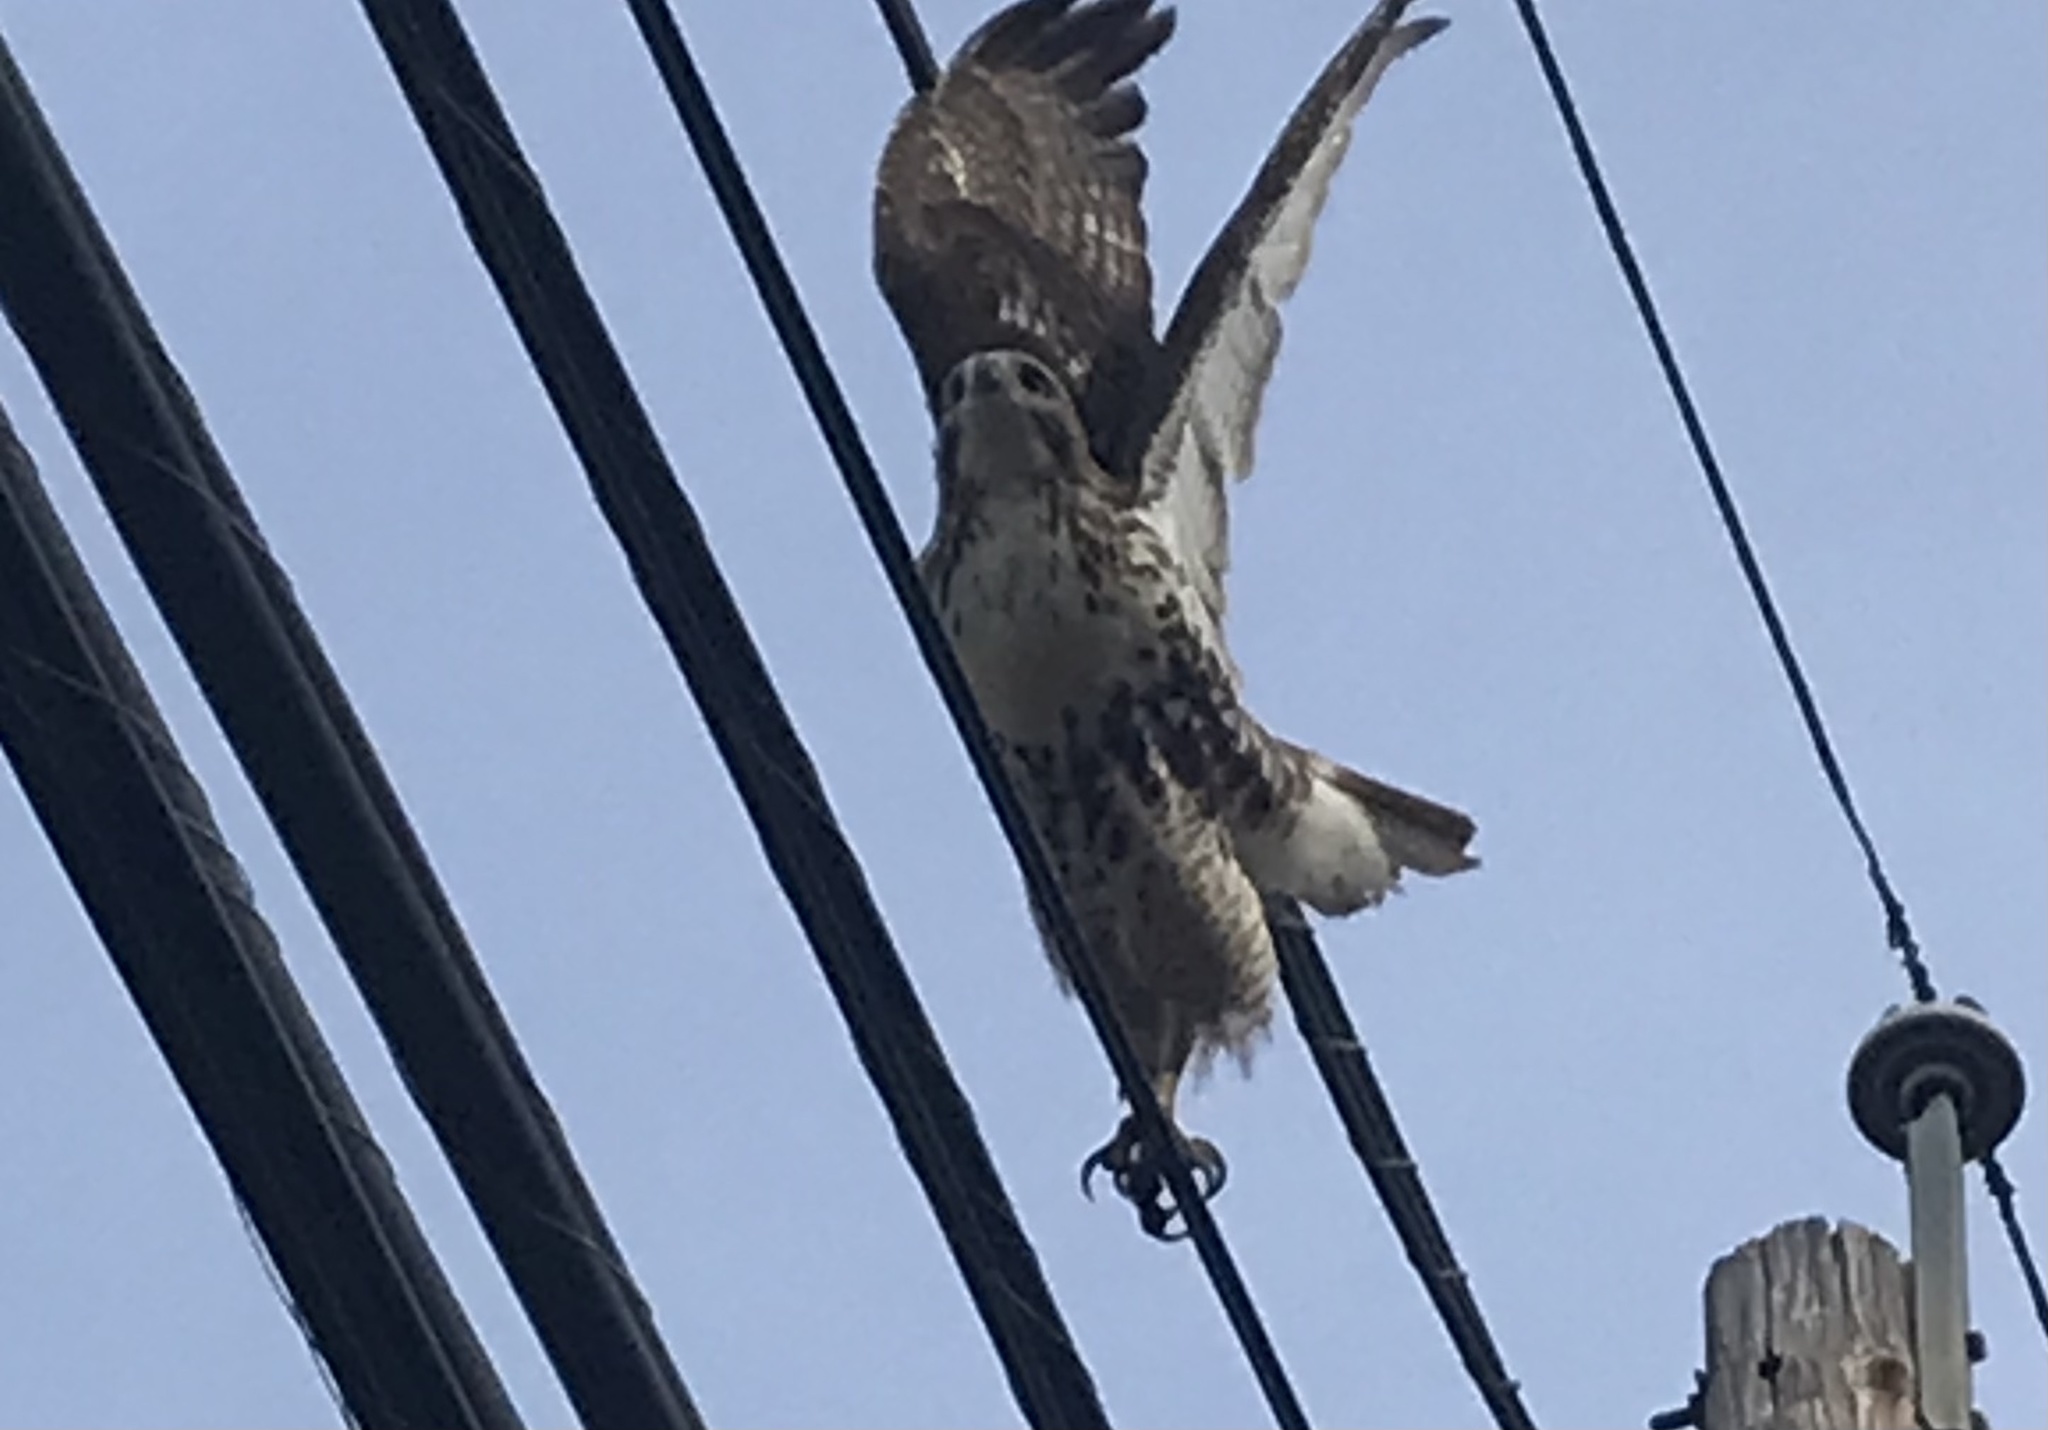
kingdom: Animalia
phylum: Chordata
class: Aves
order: Accipitriformes
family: Accipitridae
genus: Buteo
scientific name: Buteo jamaicensis
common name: Red-tailed hawk
